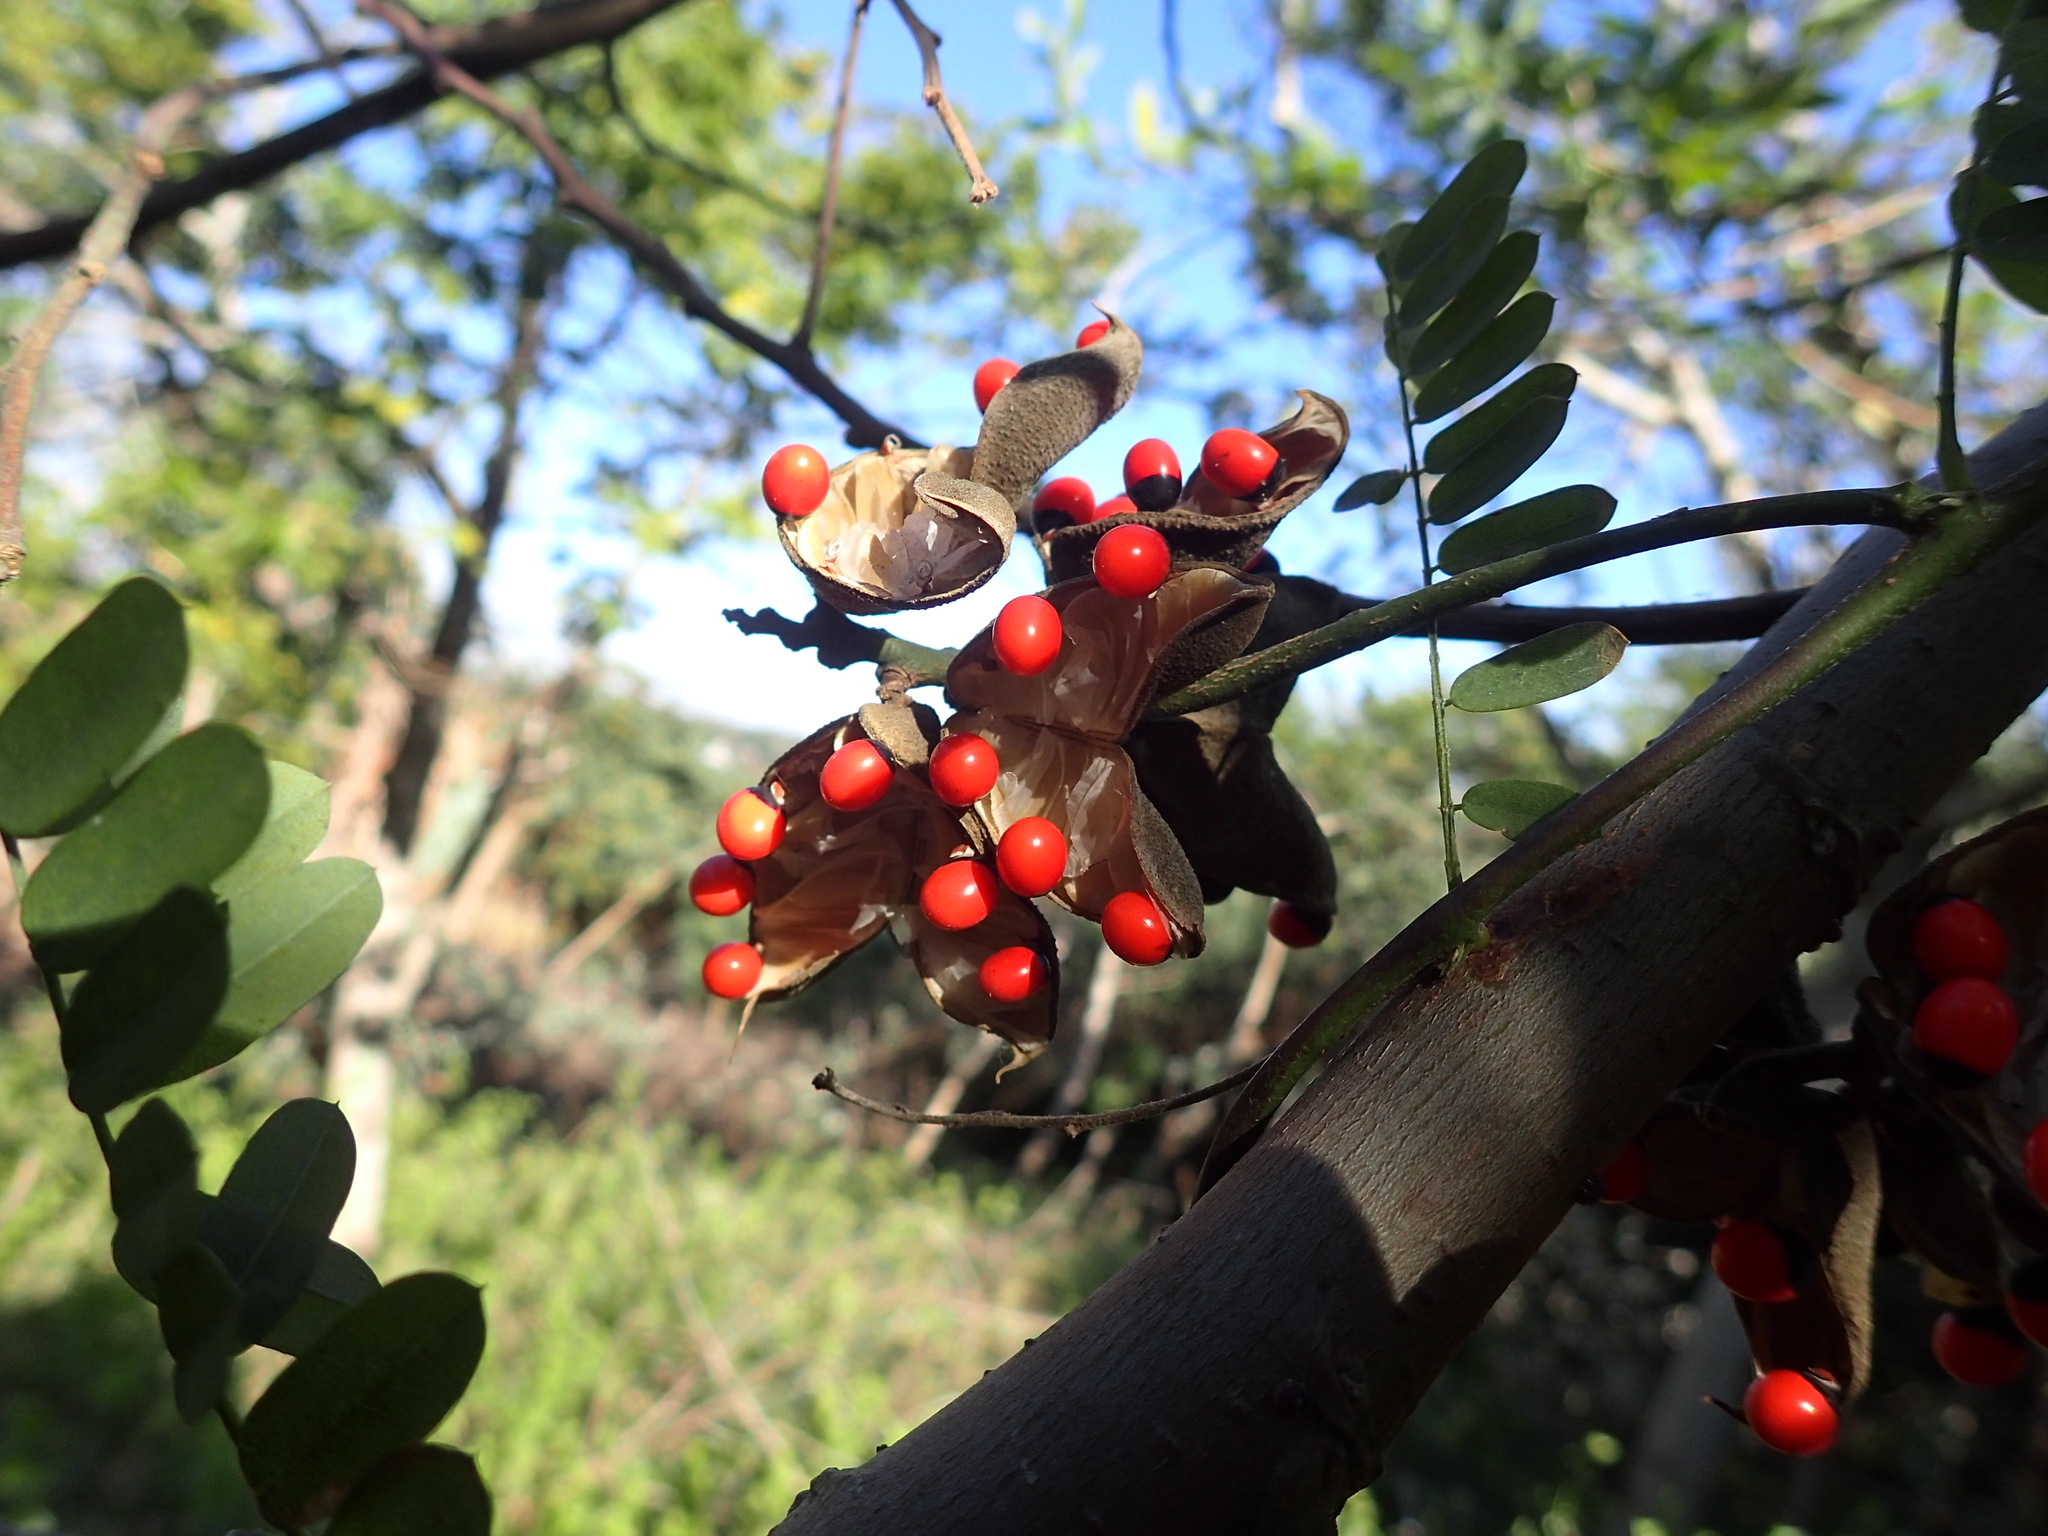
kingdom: Plantae
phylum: Tracheophyta
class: Magnoliopsida
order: Fabales
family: Fabaceae
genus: Abrus
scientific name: Abrus precatorius
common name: Rosarypea
